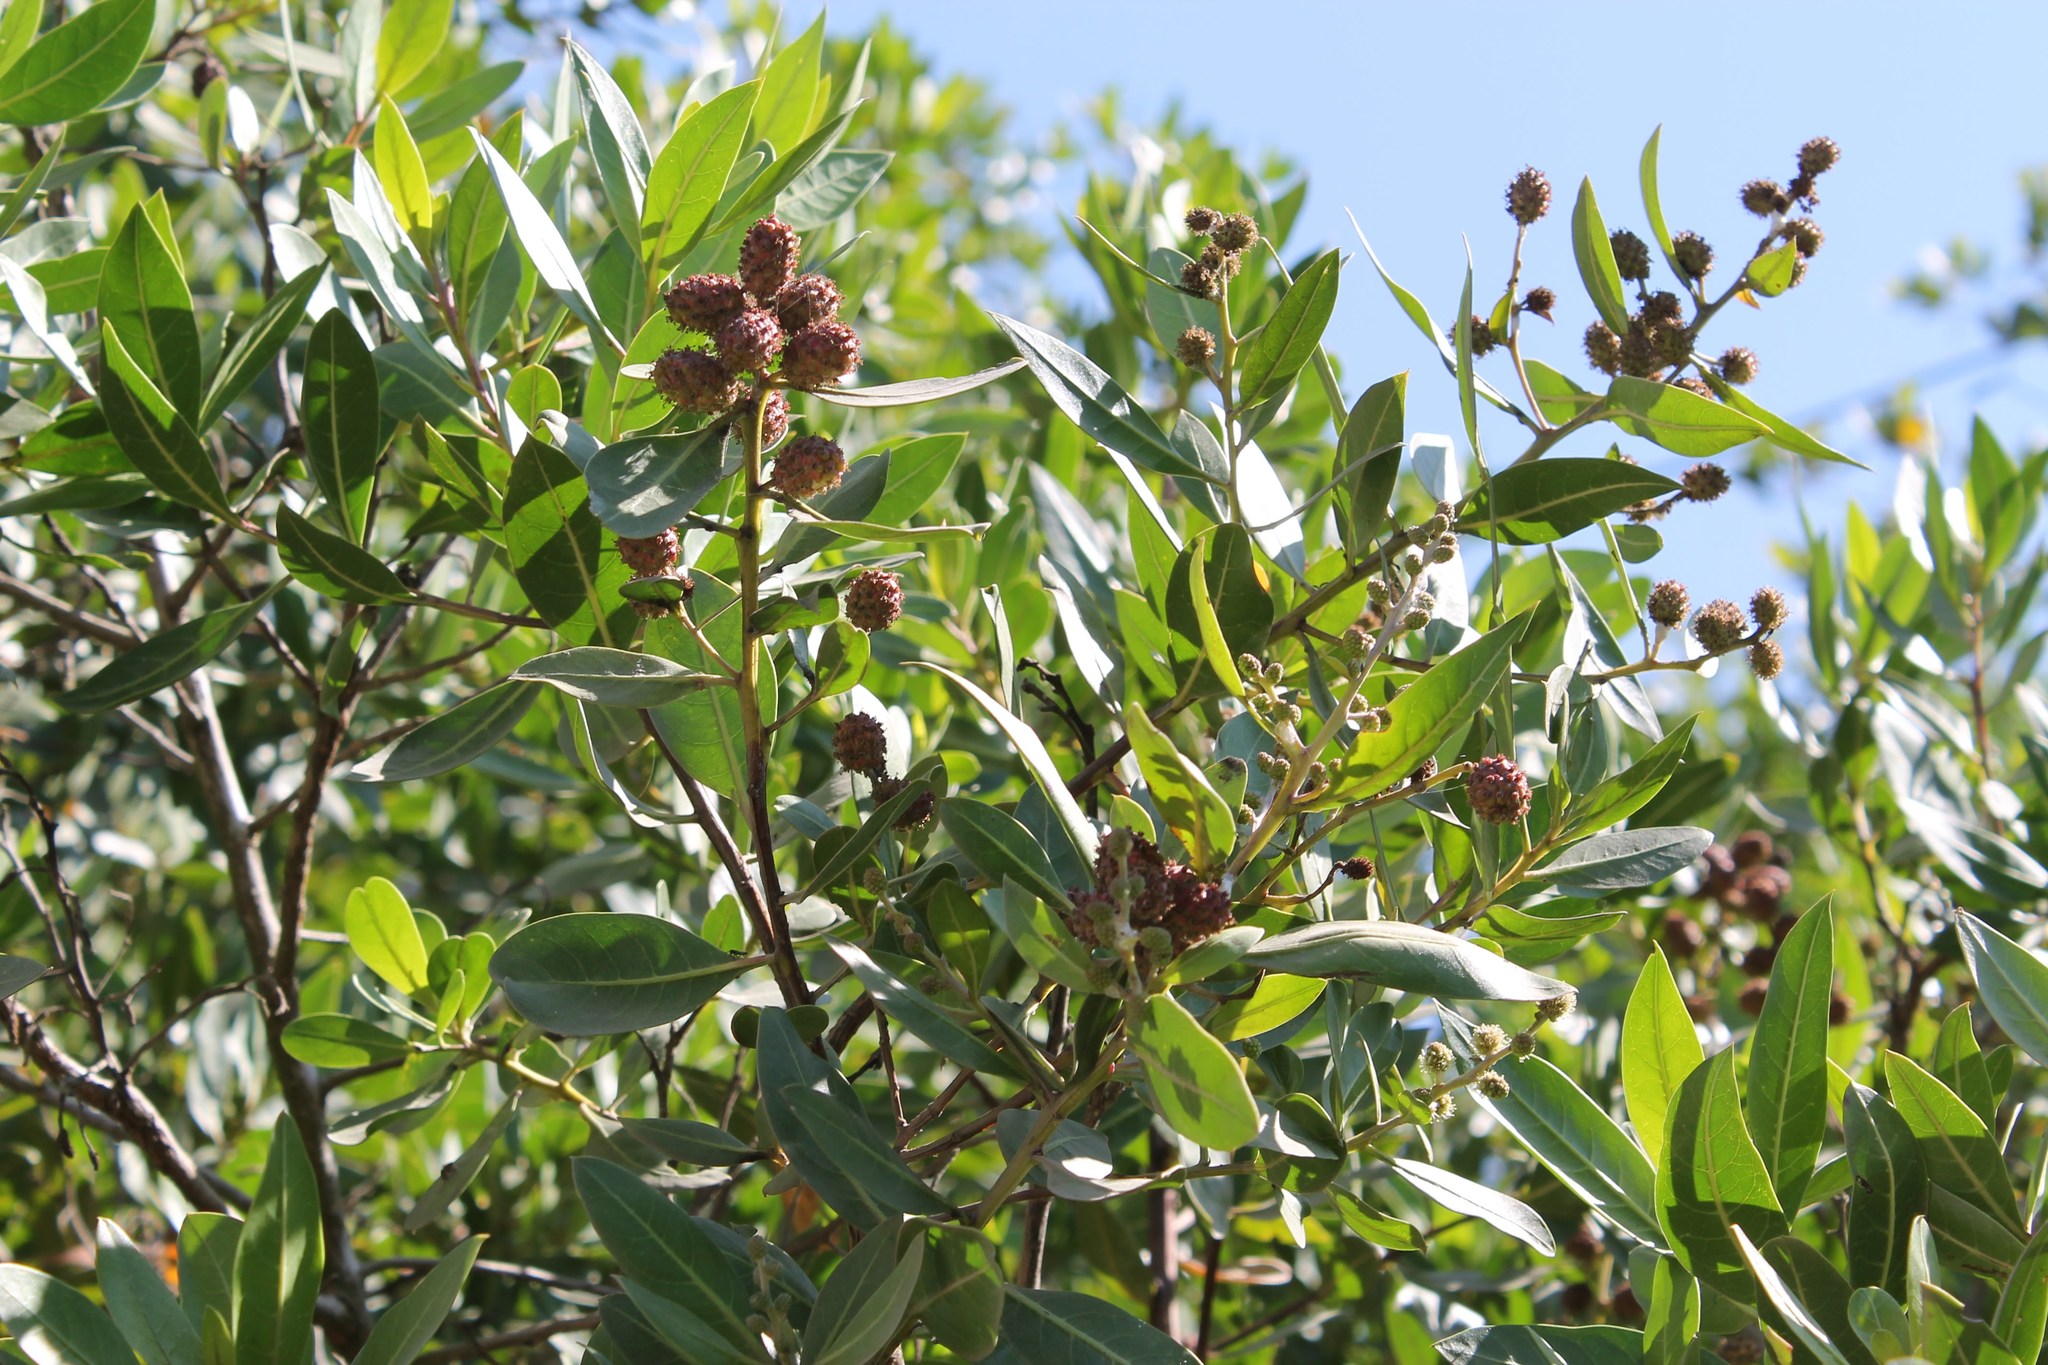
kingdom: Plantae
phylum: Tracheophyta
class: Magnoliopsida
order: Myrtales
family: Combretaceae
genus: Conocarpus
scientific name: Conocarpus erectus
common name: Button mangrove
